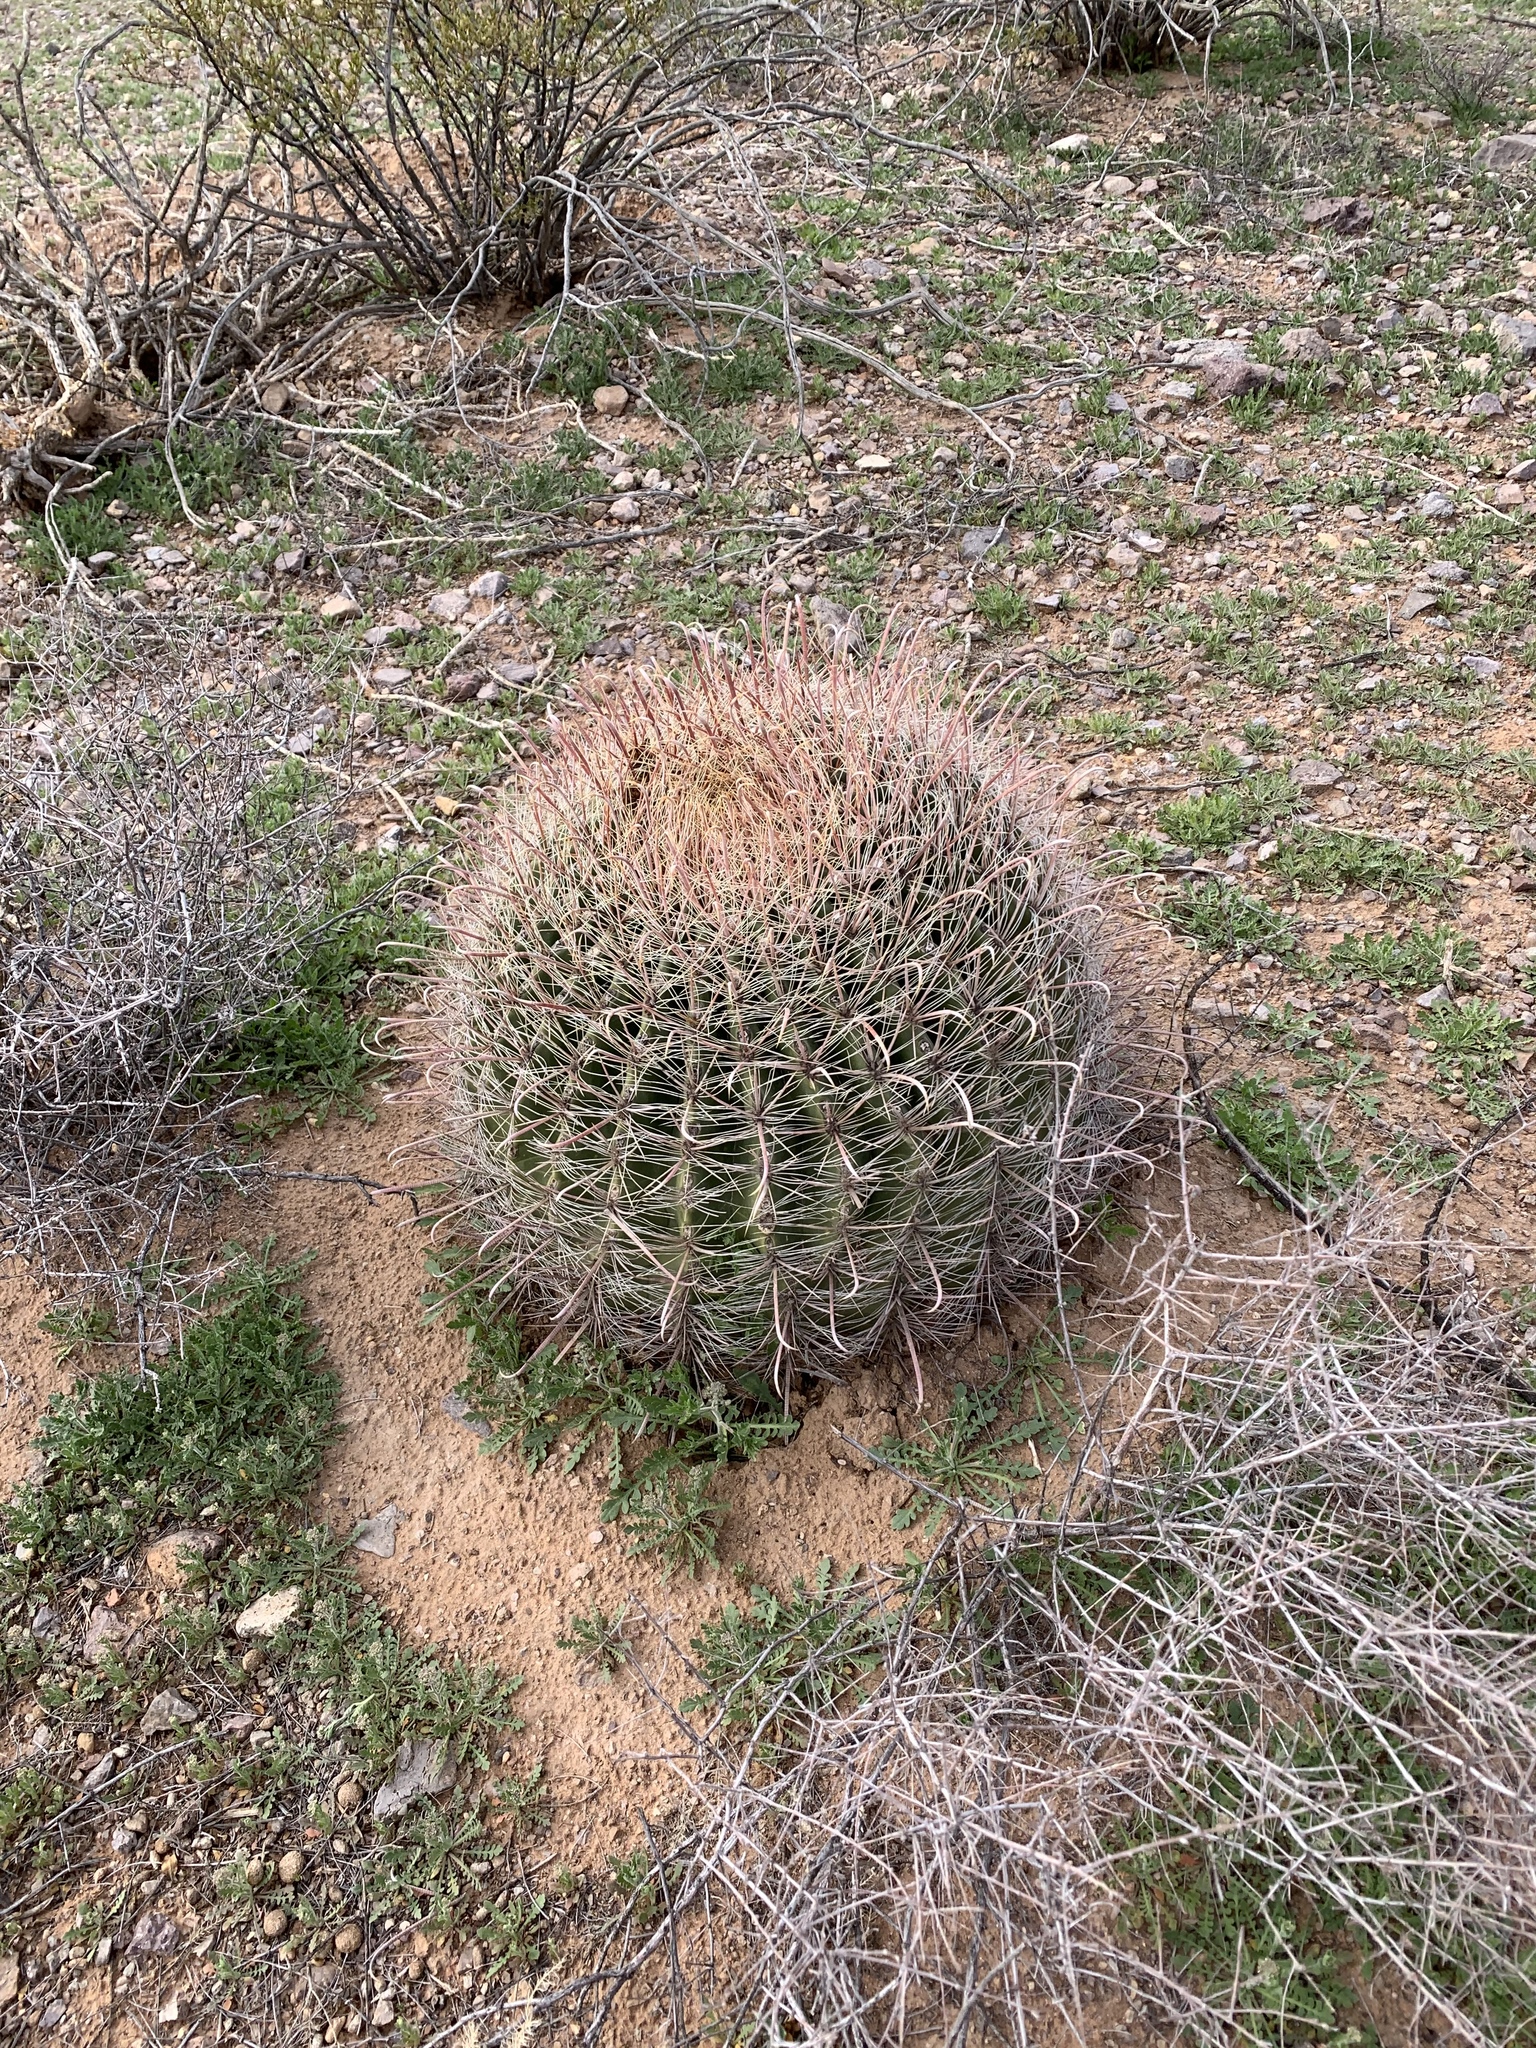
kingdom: Plantae
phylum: Tracheophyta
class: Magnoliopsida
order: Caryophyllales
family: Cactaceae
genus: Ferocactus
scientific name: Ferocactus wislizeni
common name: Candy barrel cactus
